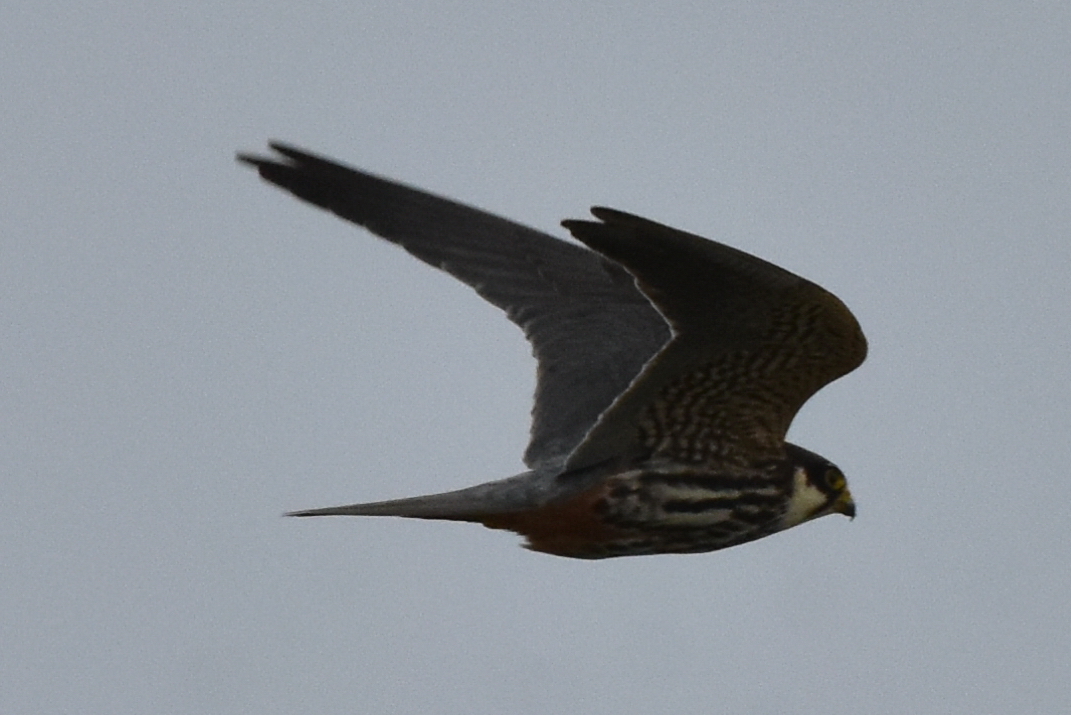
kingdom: Animalia
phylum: Chordata
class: Aves
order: Falconiformes
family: Falconidae
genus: Falco
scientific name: Falco subbuteo
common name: Eurasian hobby
